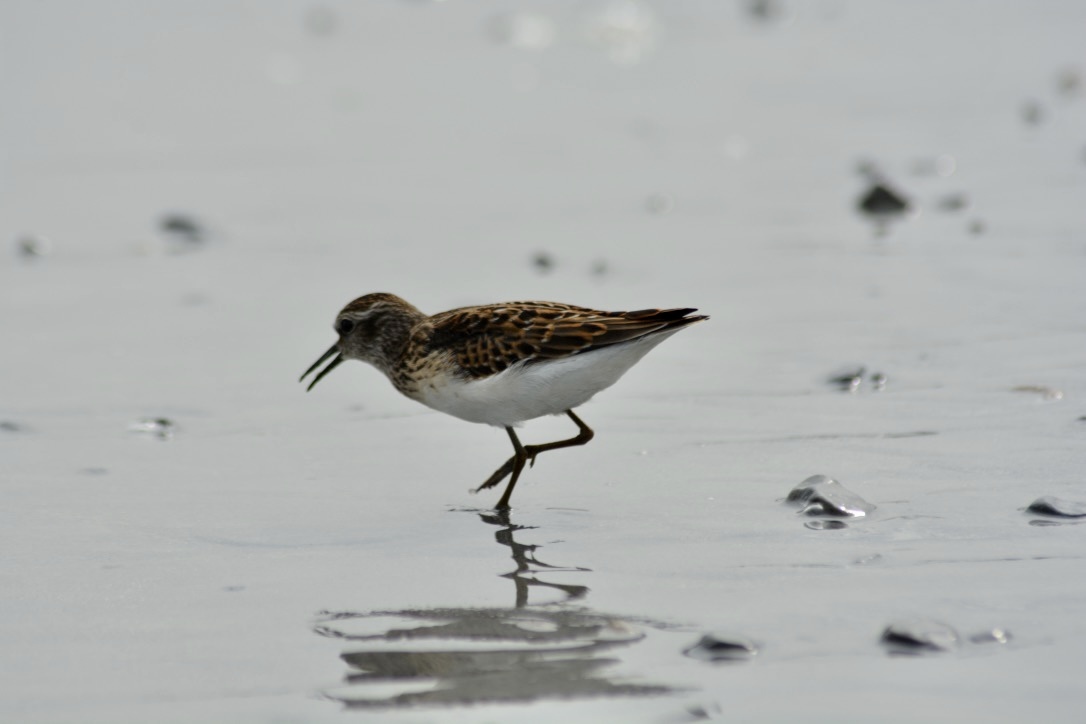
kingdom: Animalia
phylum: Chordata
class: Aves
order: Charadriiformes
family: Scolopacidae
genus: Calidris
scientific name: Calidris minutilla
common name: Least sandpiper
